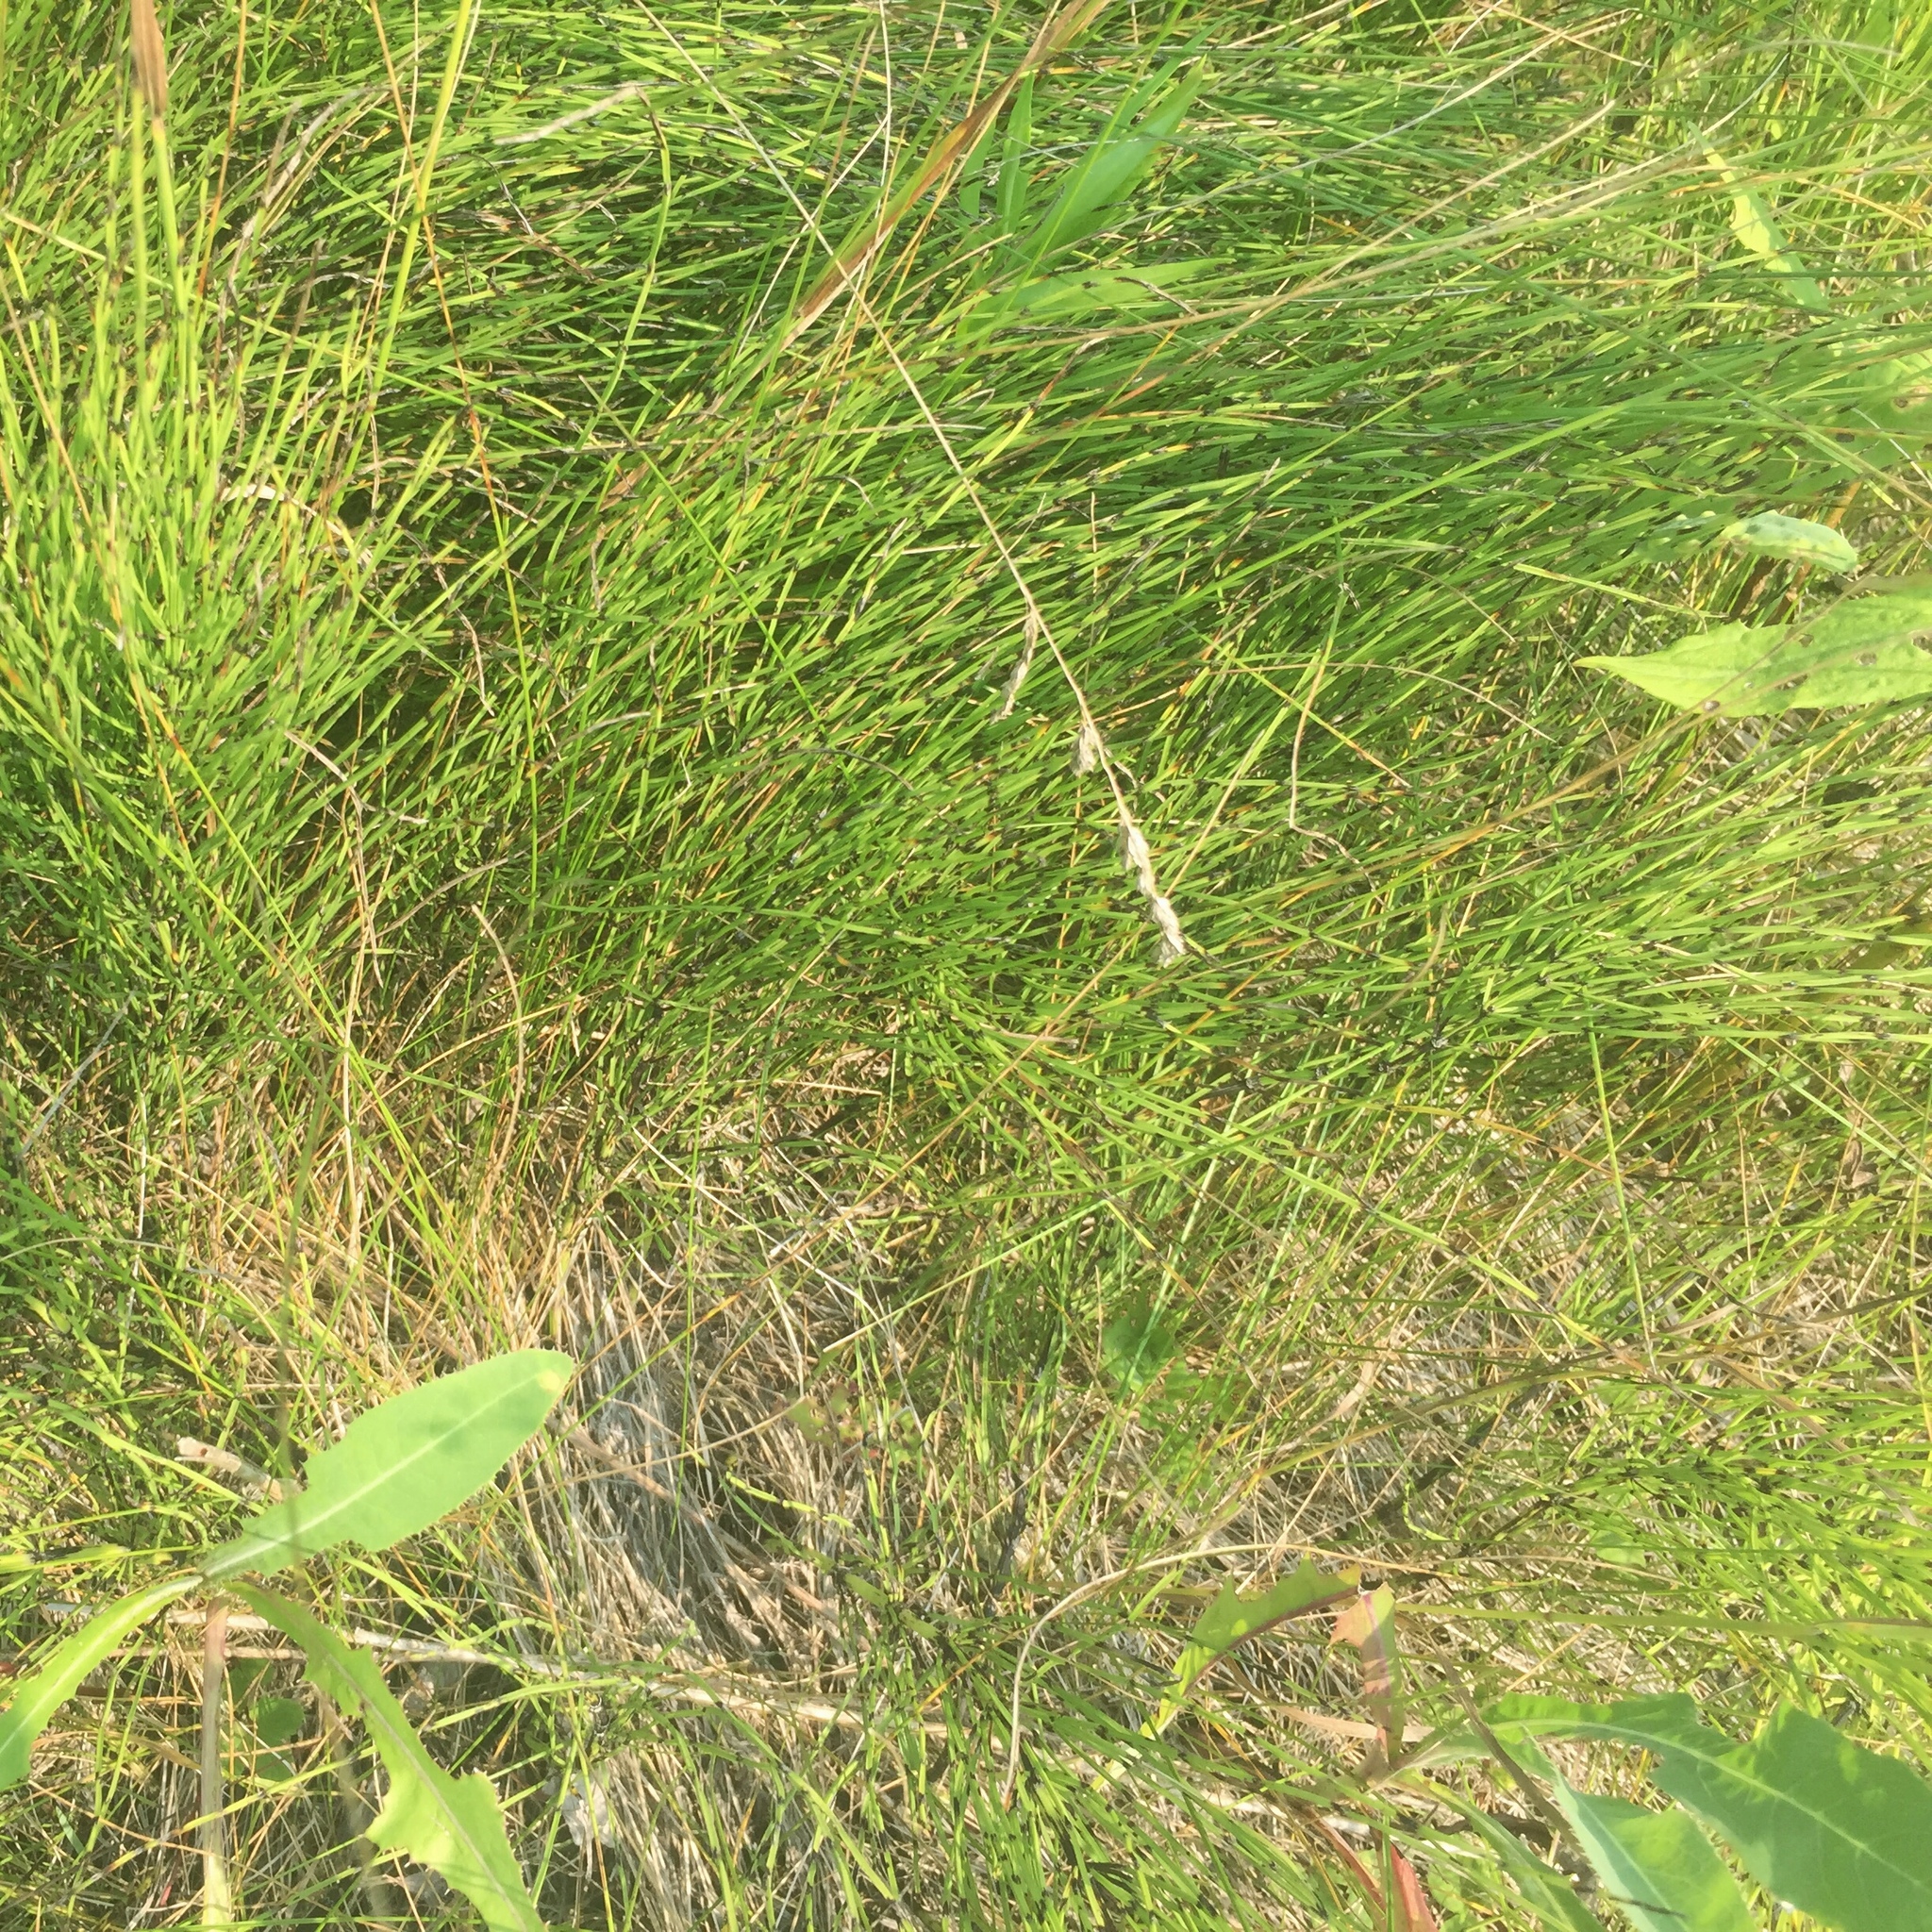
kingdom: Plantae
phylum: Tracheophyta
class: Polypodiopsida
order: Equisetales
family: Equisetaceae
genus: Equisetum
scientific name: Equisetum arvense
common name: Field horsetail
